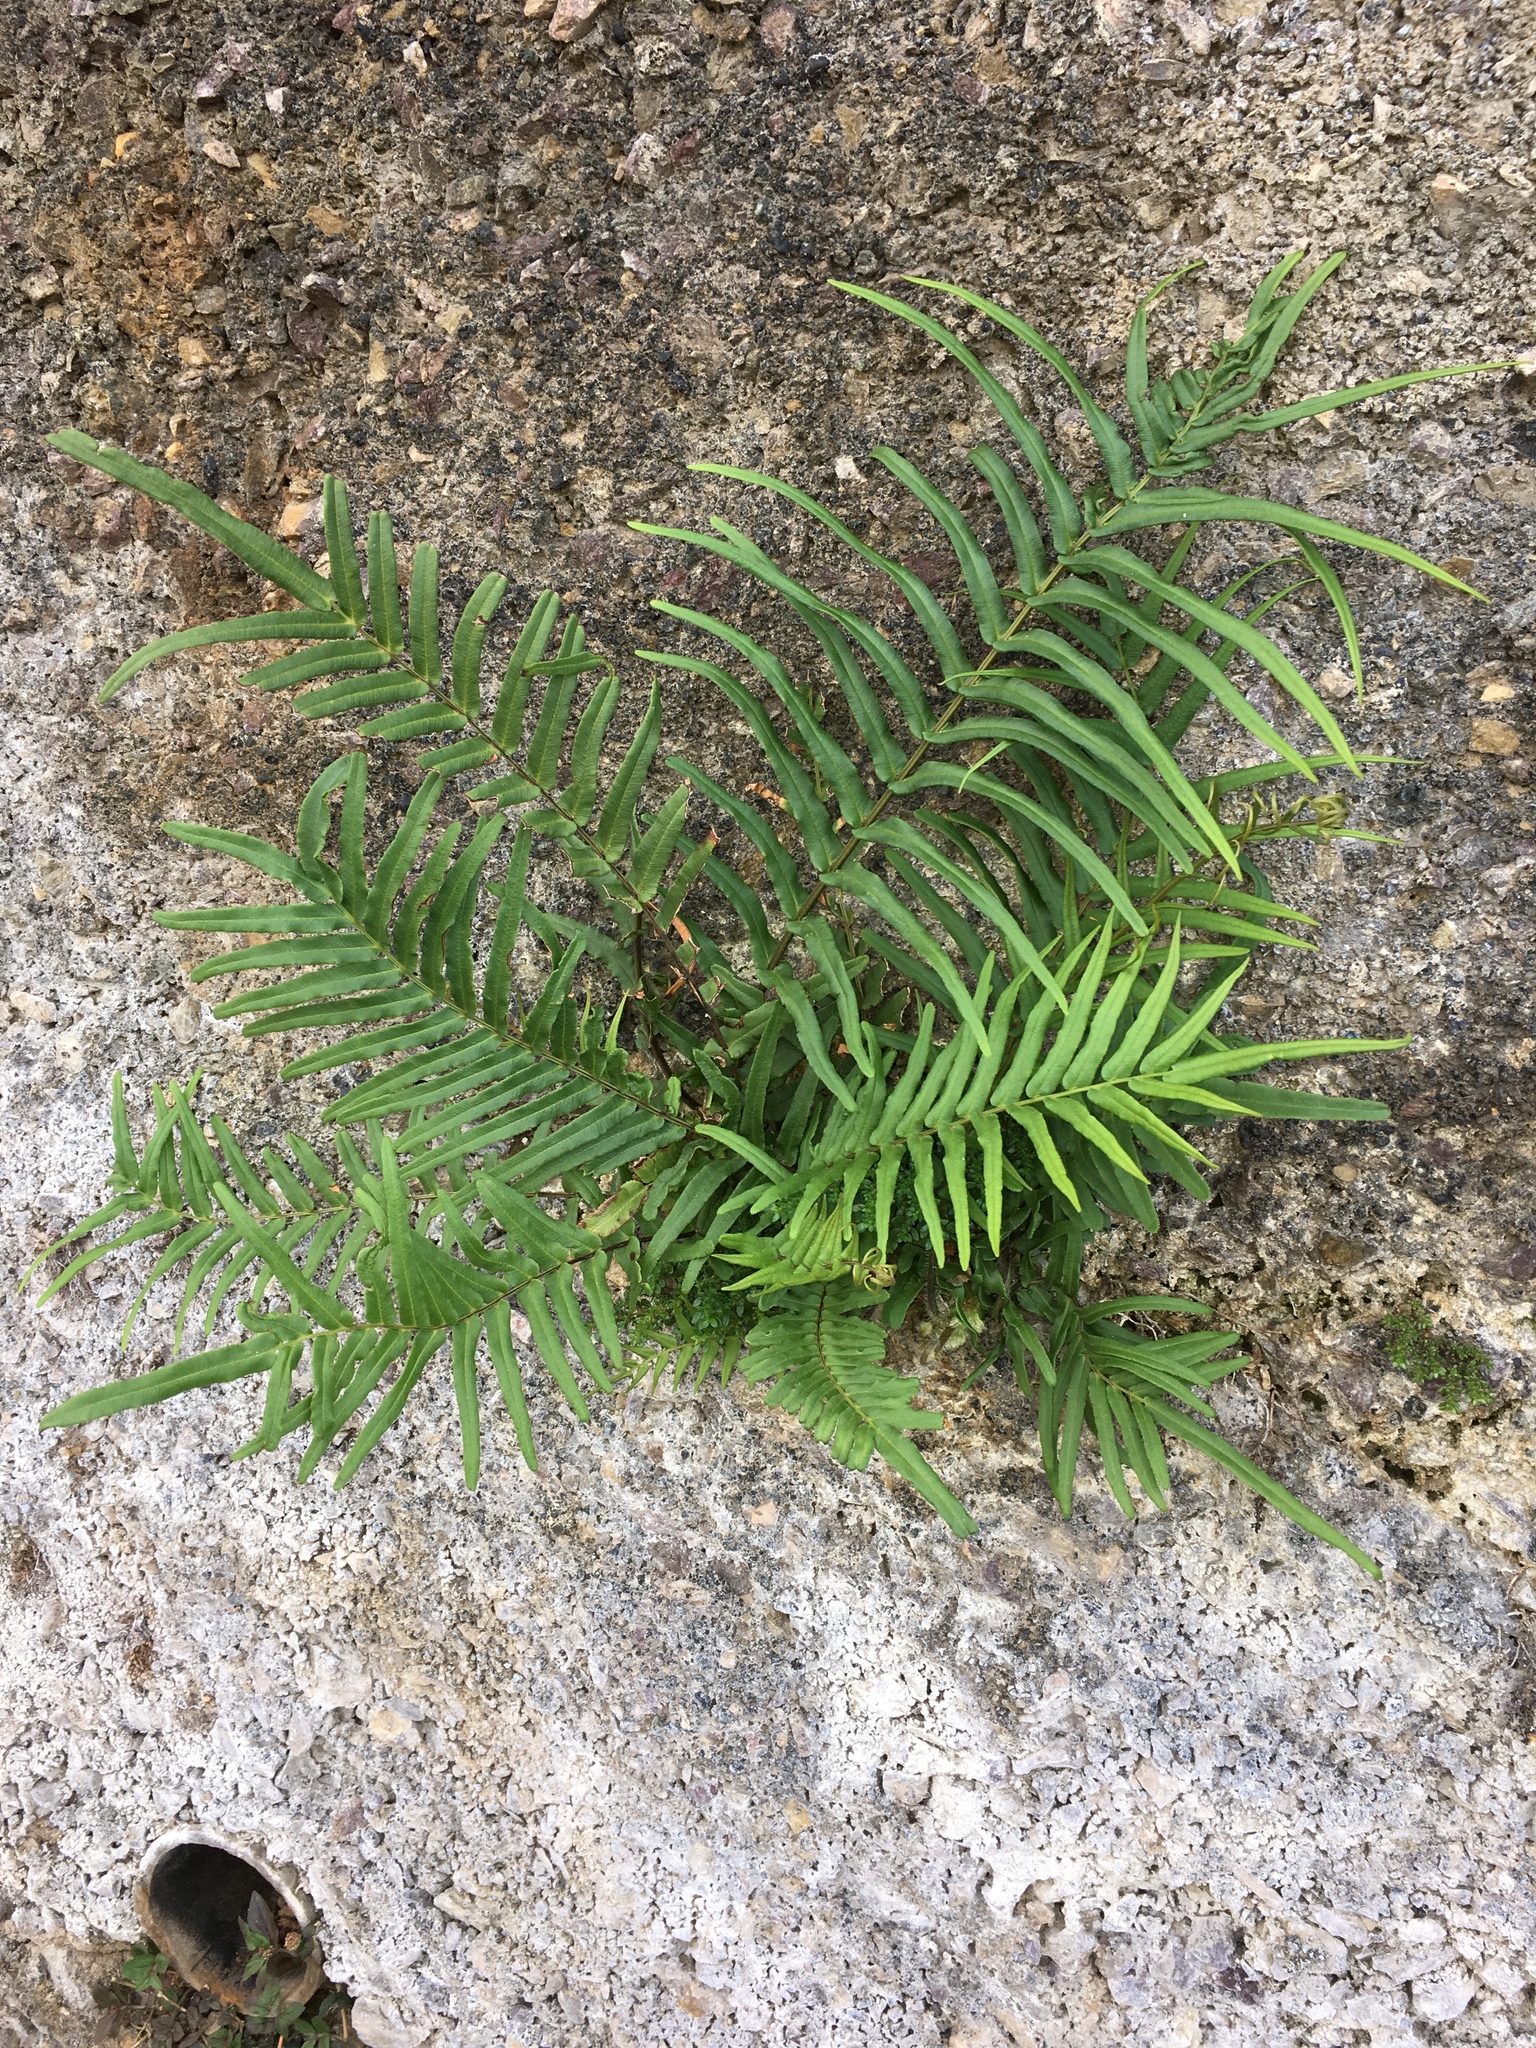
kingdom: Plantae
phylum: Tracheophyta
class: Polypodiopsida
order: Polypodiales
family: Pteridaceae
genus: Pteris
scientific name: Pteris vittata
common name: Ladder brake
